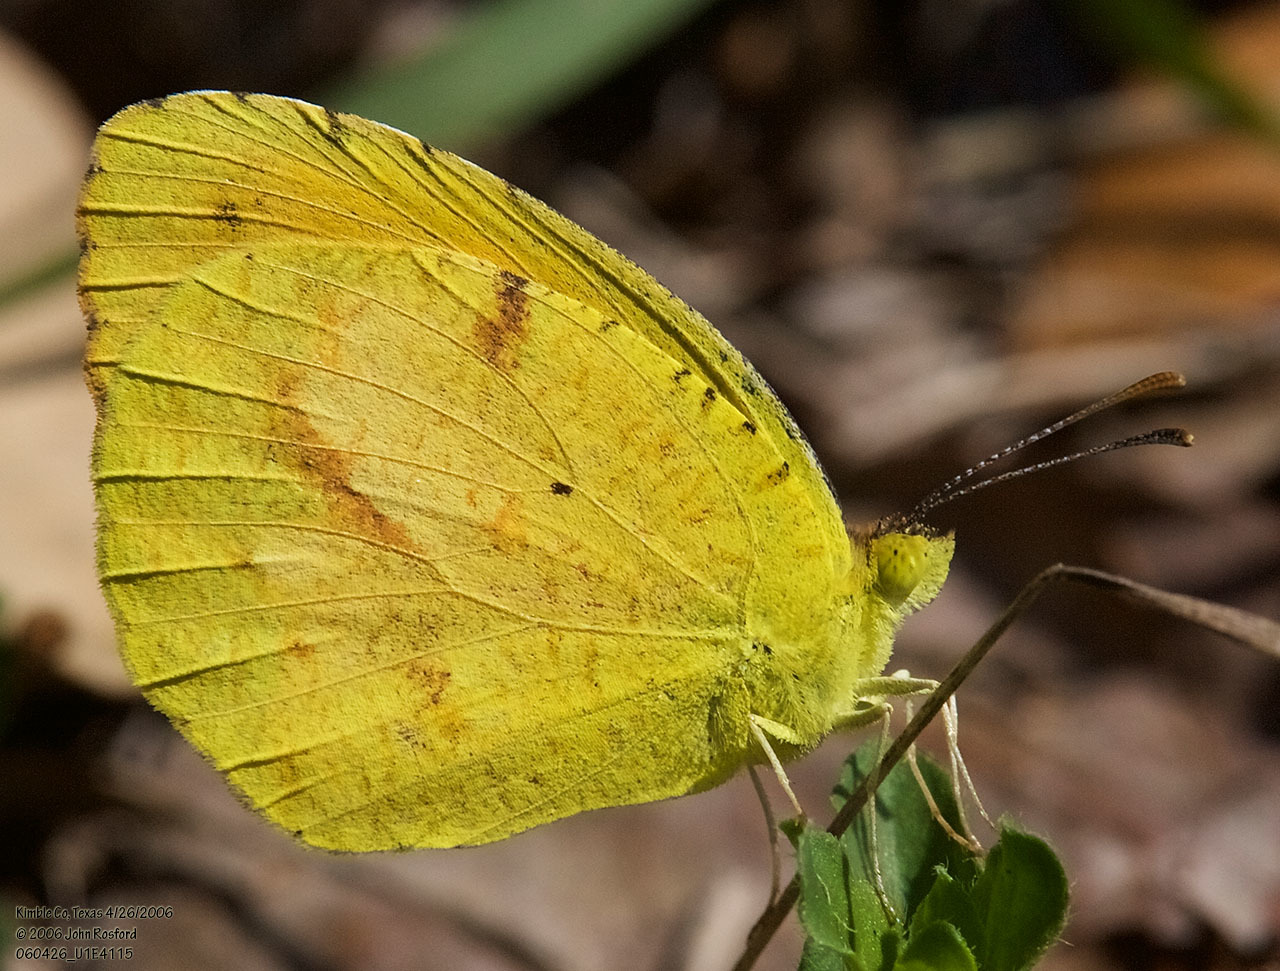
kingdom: Animalia
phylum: Arthropoda
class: Insecta
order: Lepidoptera
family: Pieridae
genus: Abaeis
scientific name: Abaeis nicippe
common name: Sleepy orange
